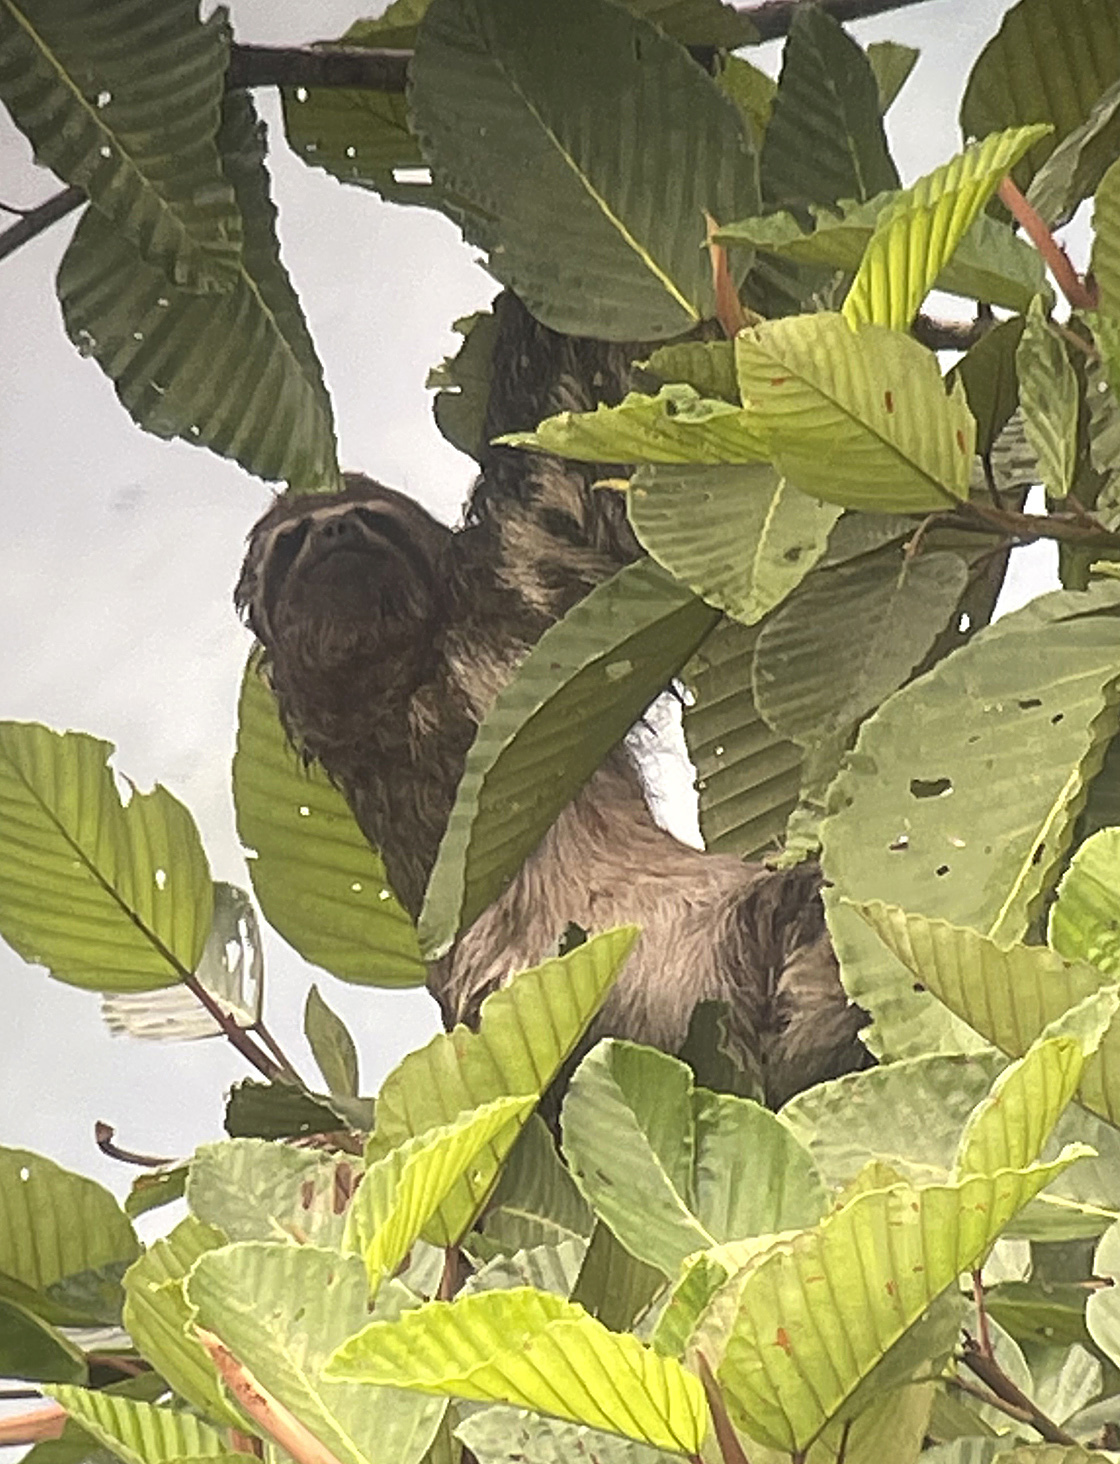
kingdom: Animalia
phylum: Chordata
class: Mammalia
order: Pilosa
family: Bradypodidae
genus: Bradypus
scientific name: Bradypus variegatus
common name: Brown-throated three-toed sloth
